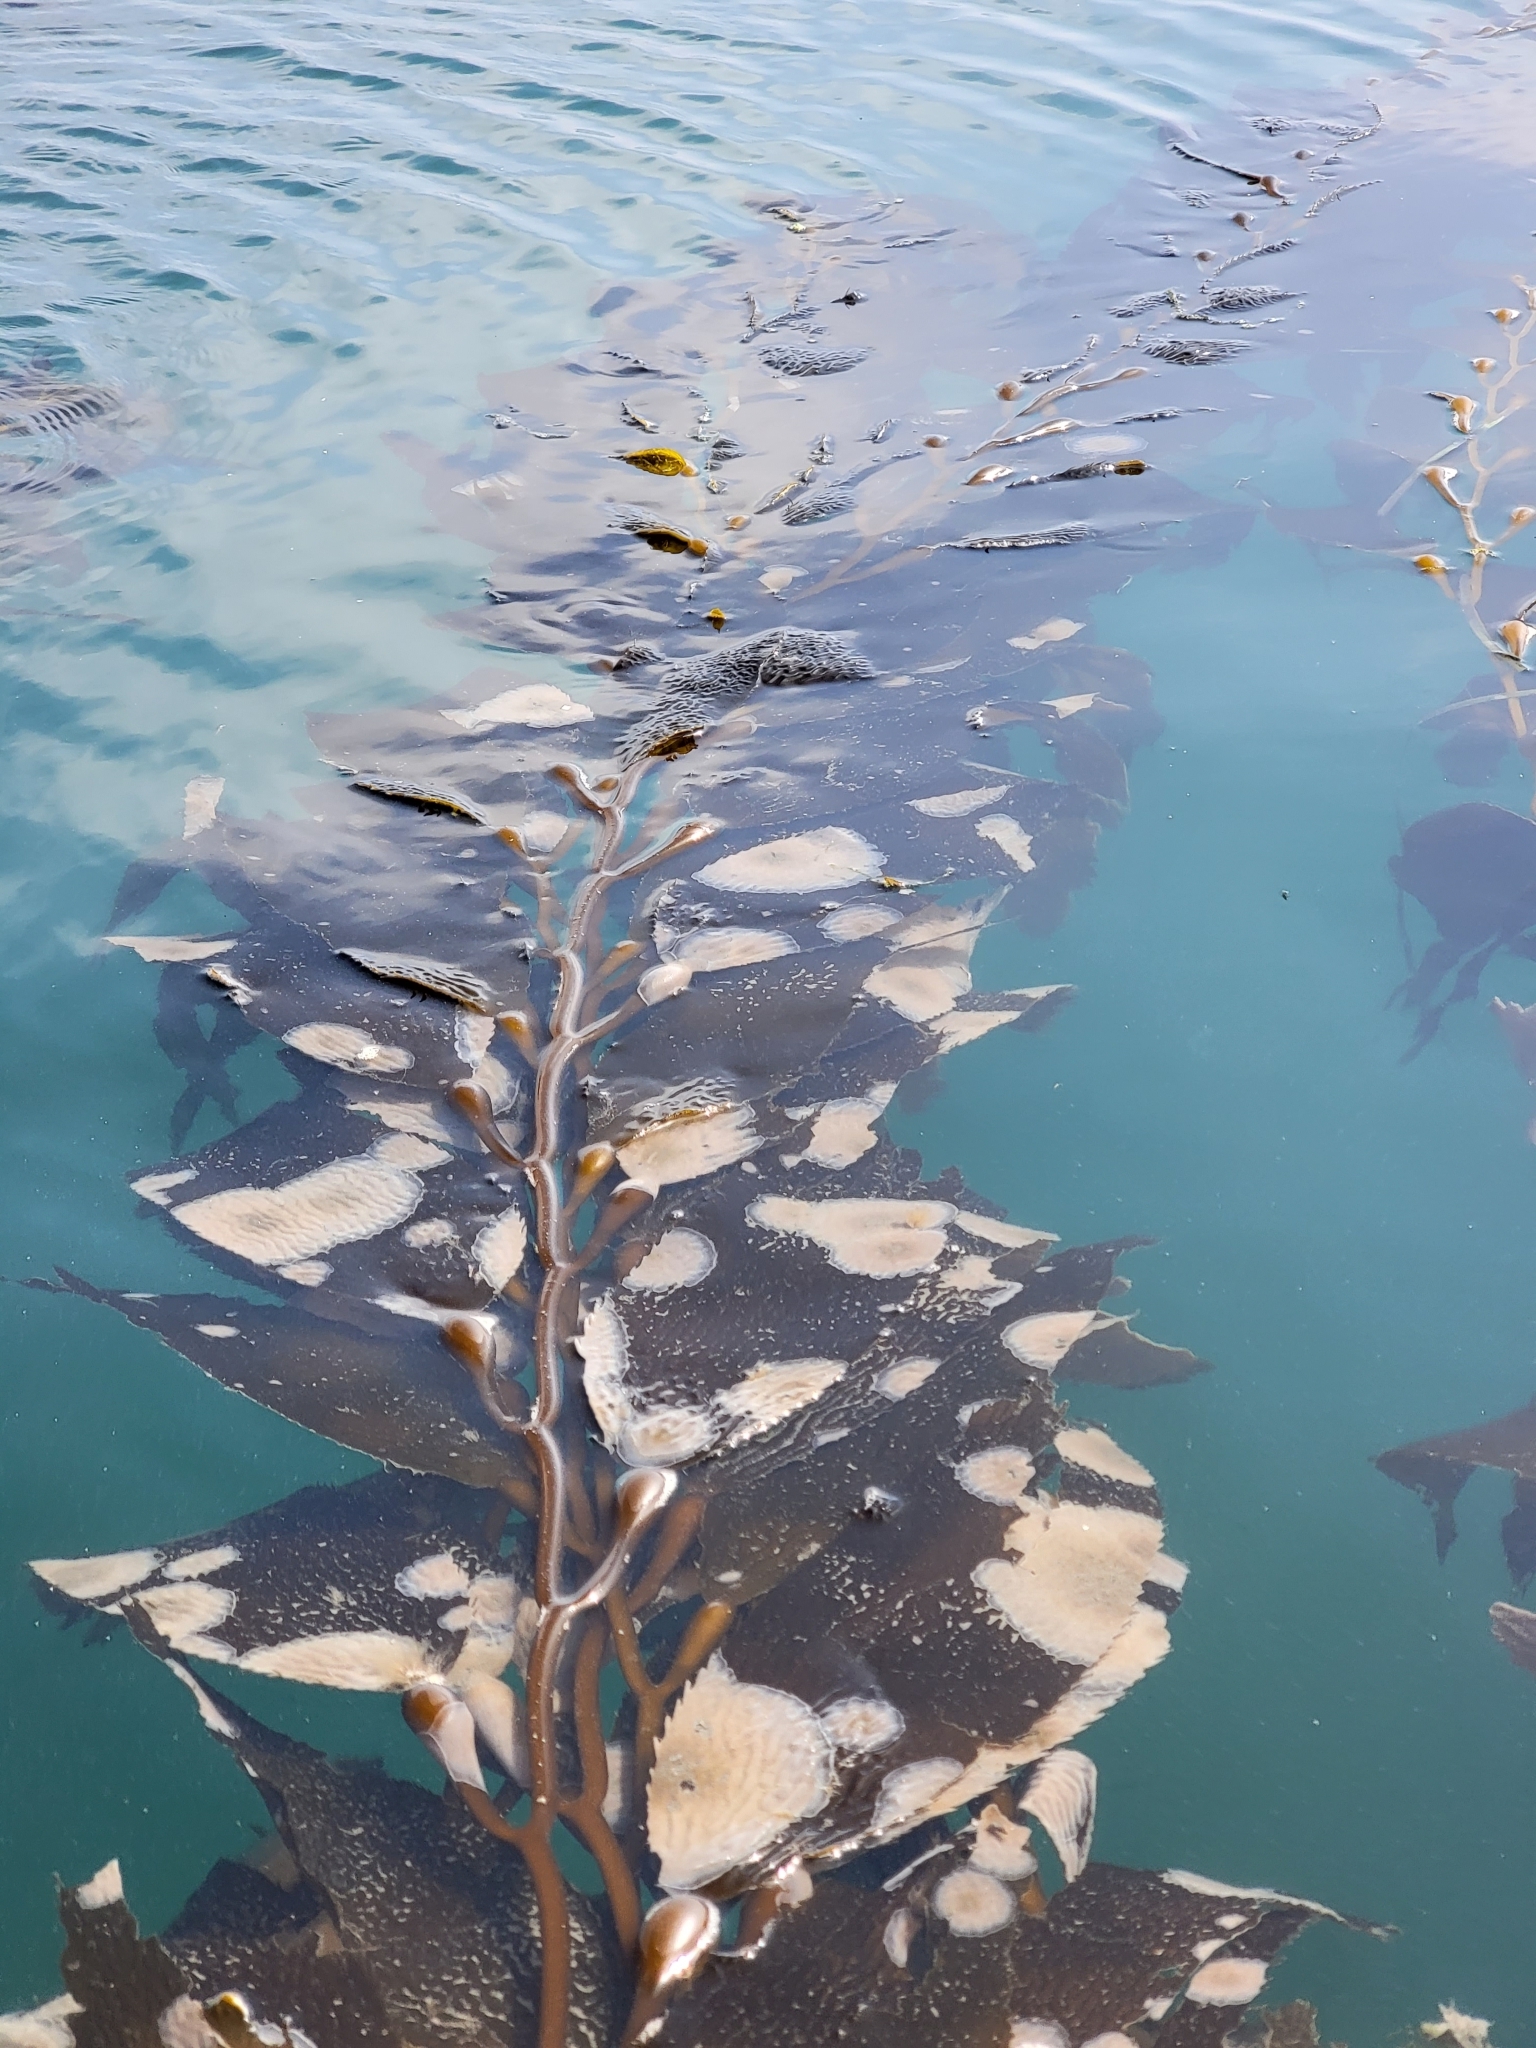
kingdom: Chromista
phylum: Ochrophyta
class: Phaeophyceae
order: Laminariales
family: Laminariaceae
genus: Macrocystis
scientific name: Macrocystis pyrifera
